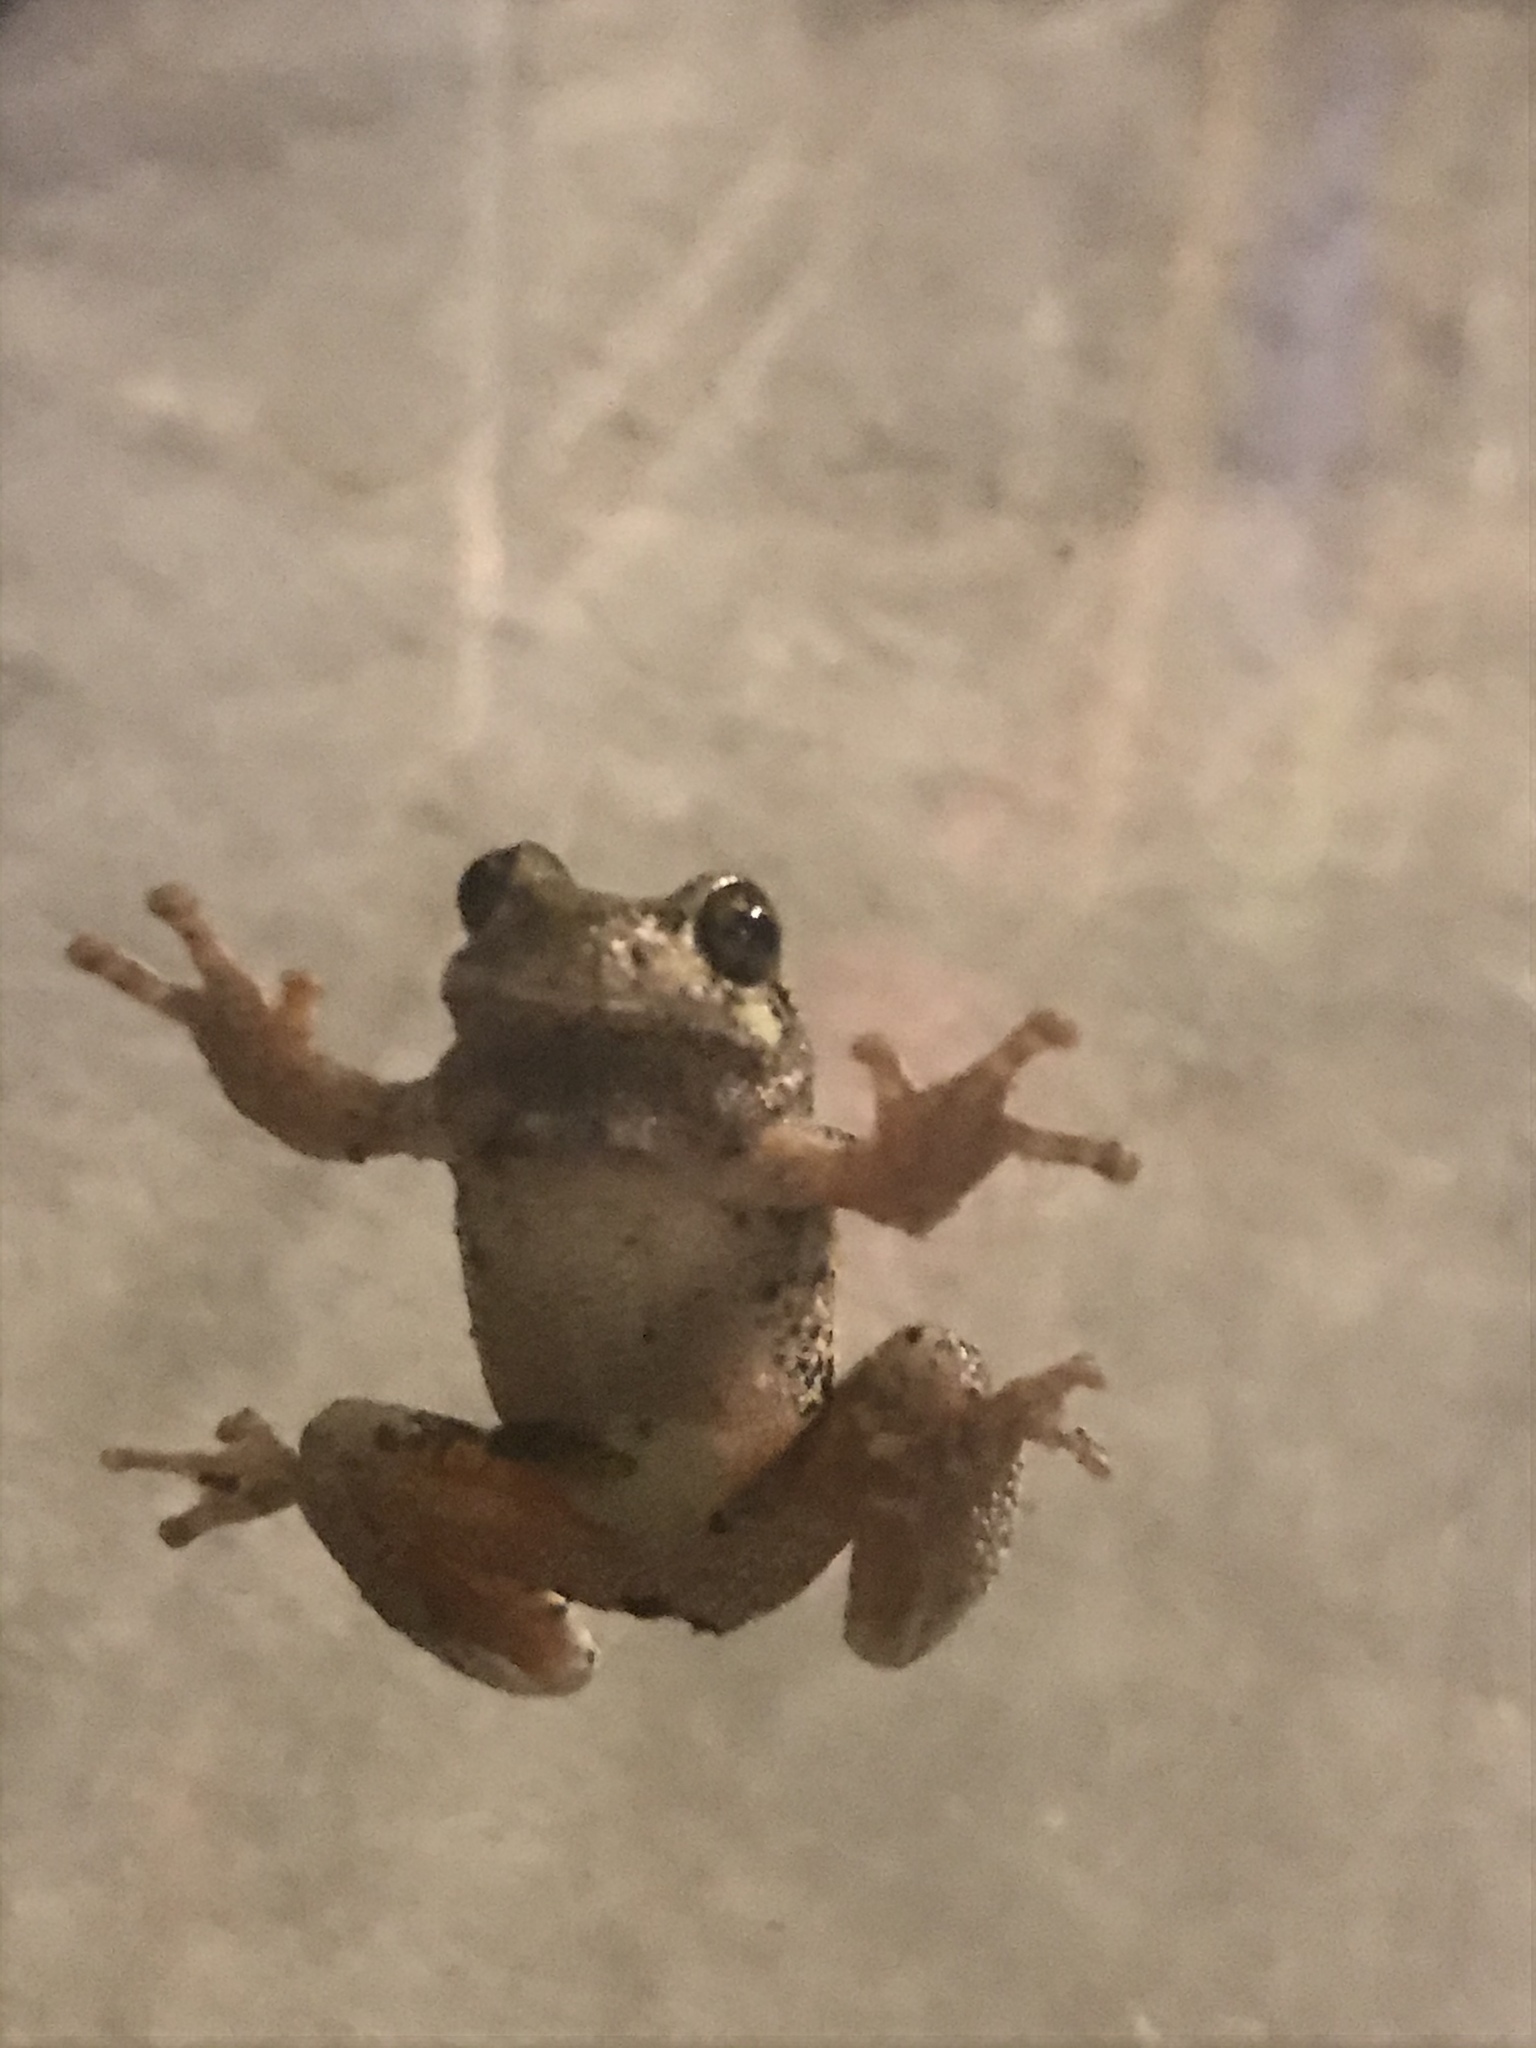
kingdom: Animalia
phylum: Chordata
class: Amphibia
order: Anura
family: Hylidae
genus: Dryophytes
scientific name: Dryophytes chrysoscelis
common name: Cope's gray treefrog
